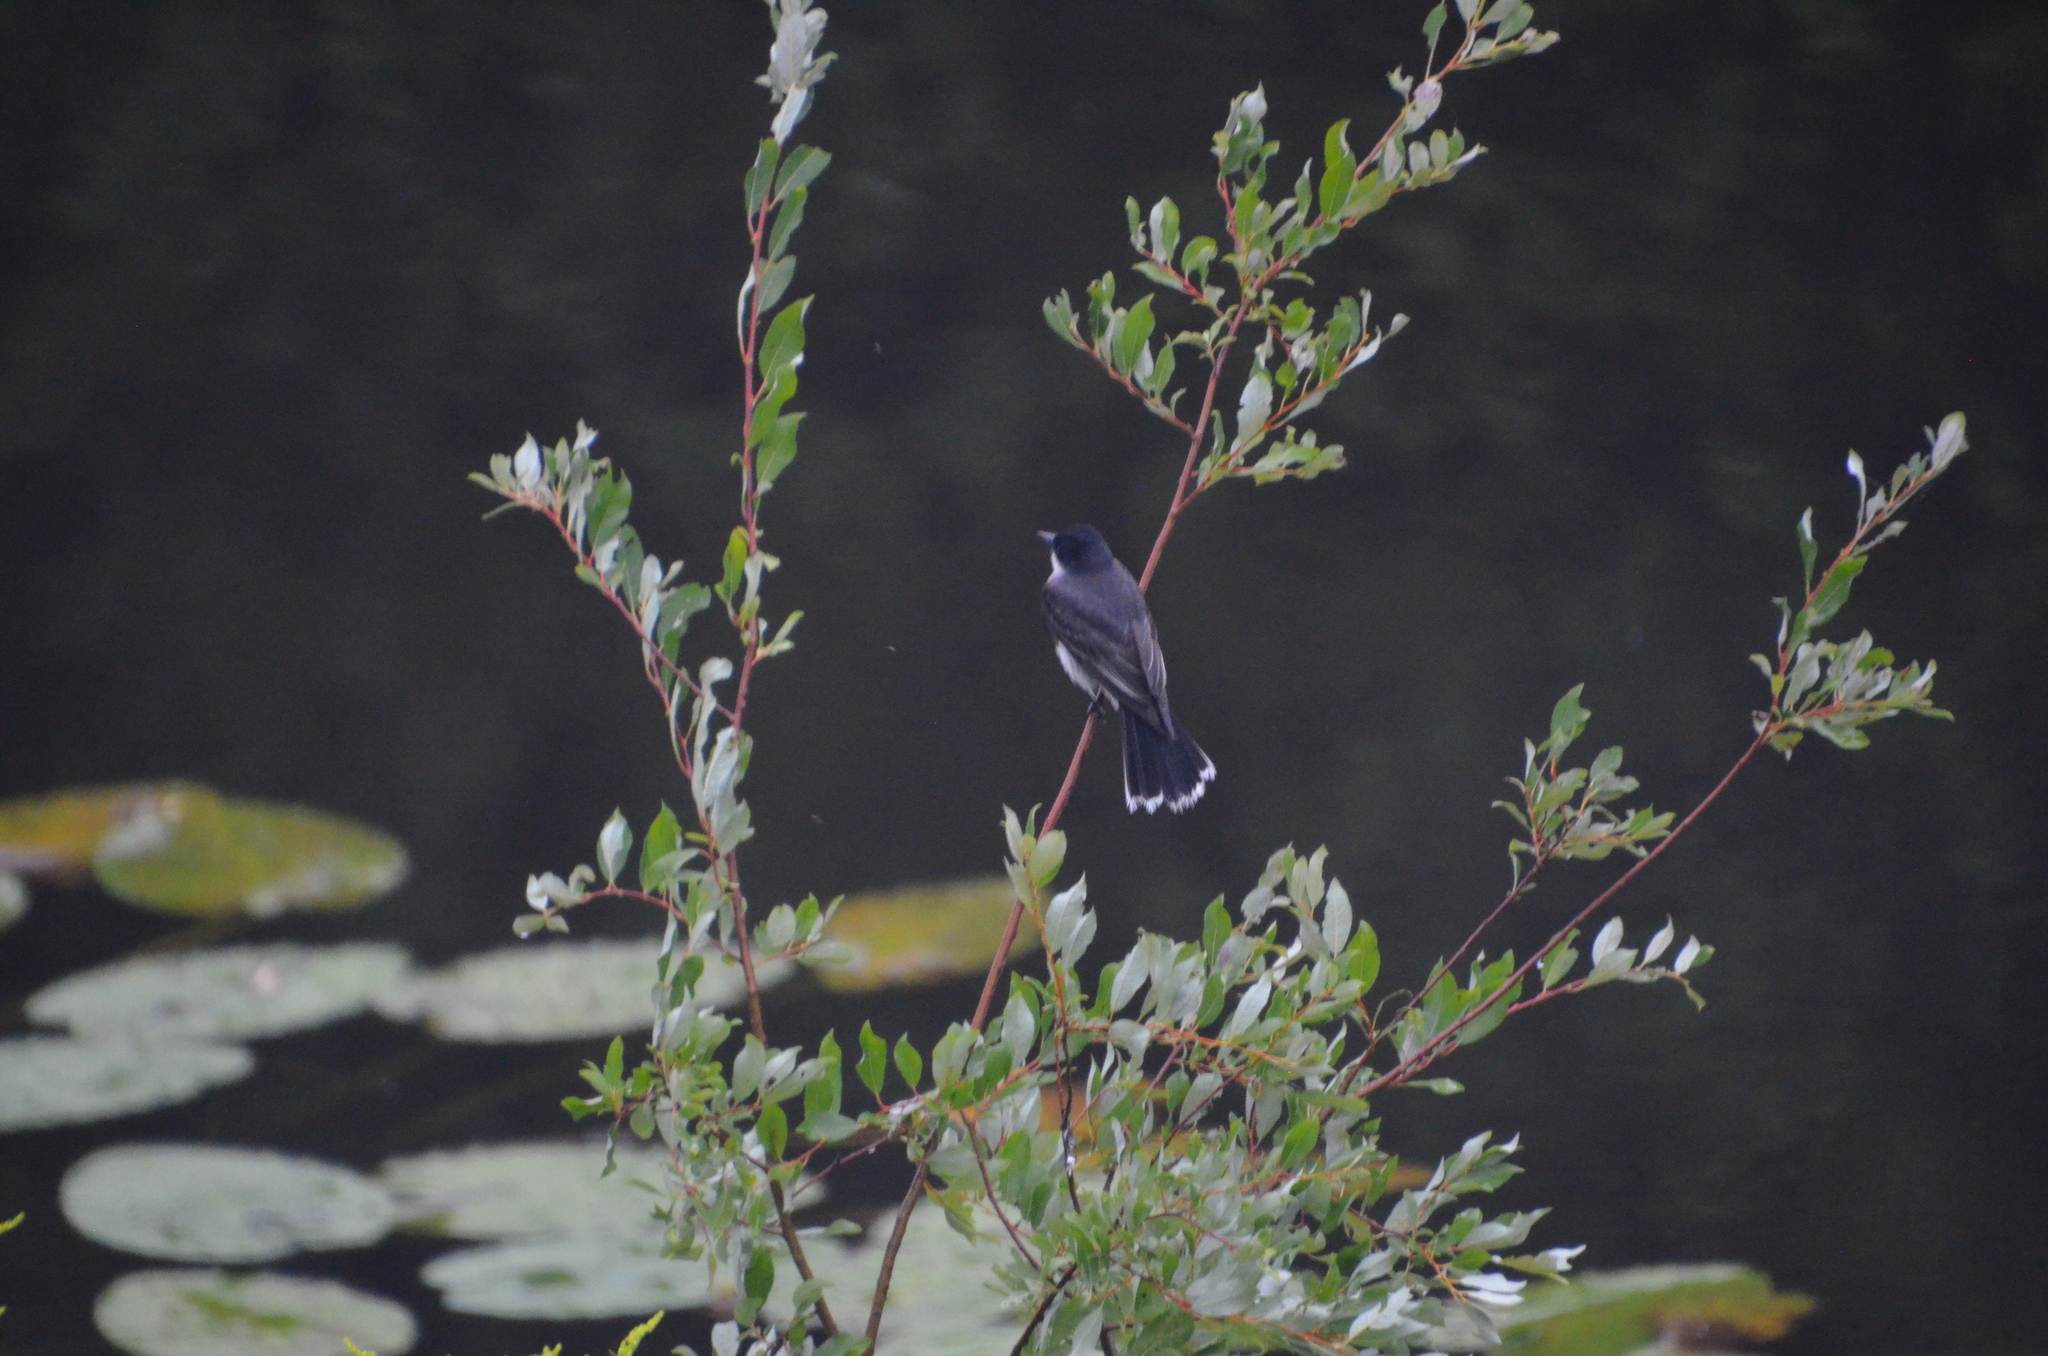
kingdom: Animalia
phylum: Chordata
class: Aves
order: Passeriformes
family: Tyrannidae
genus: Tyrannus
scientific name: Tyrannus tyrannus
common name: Eastern kingbird
